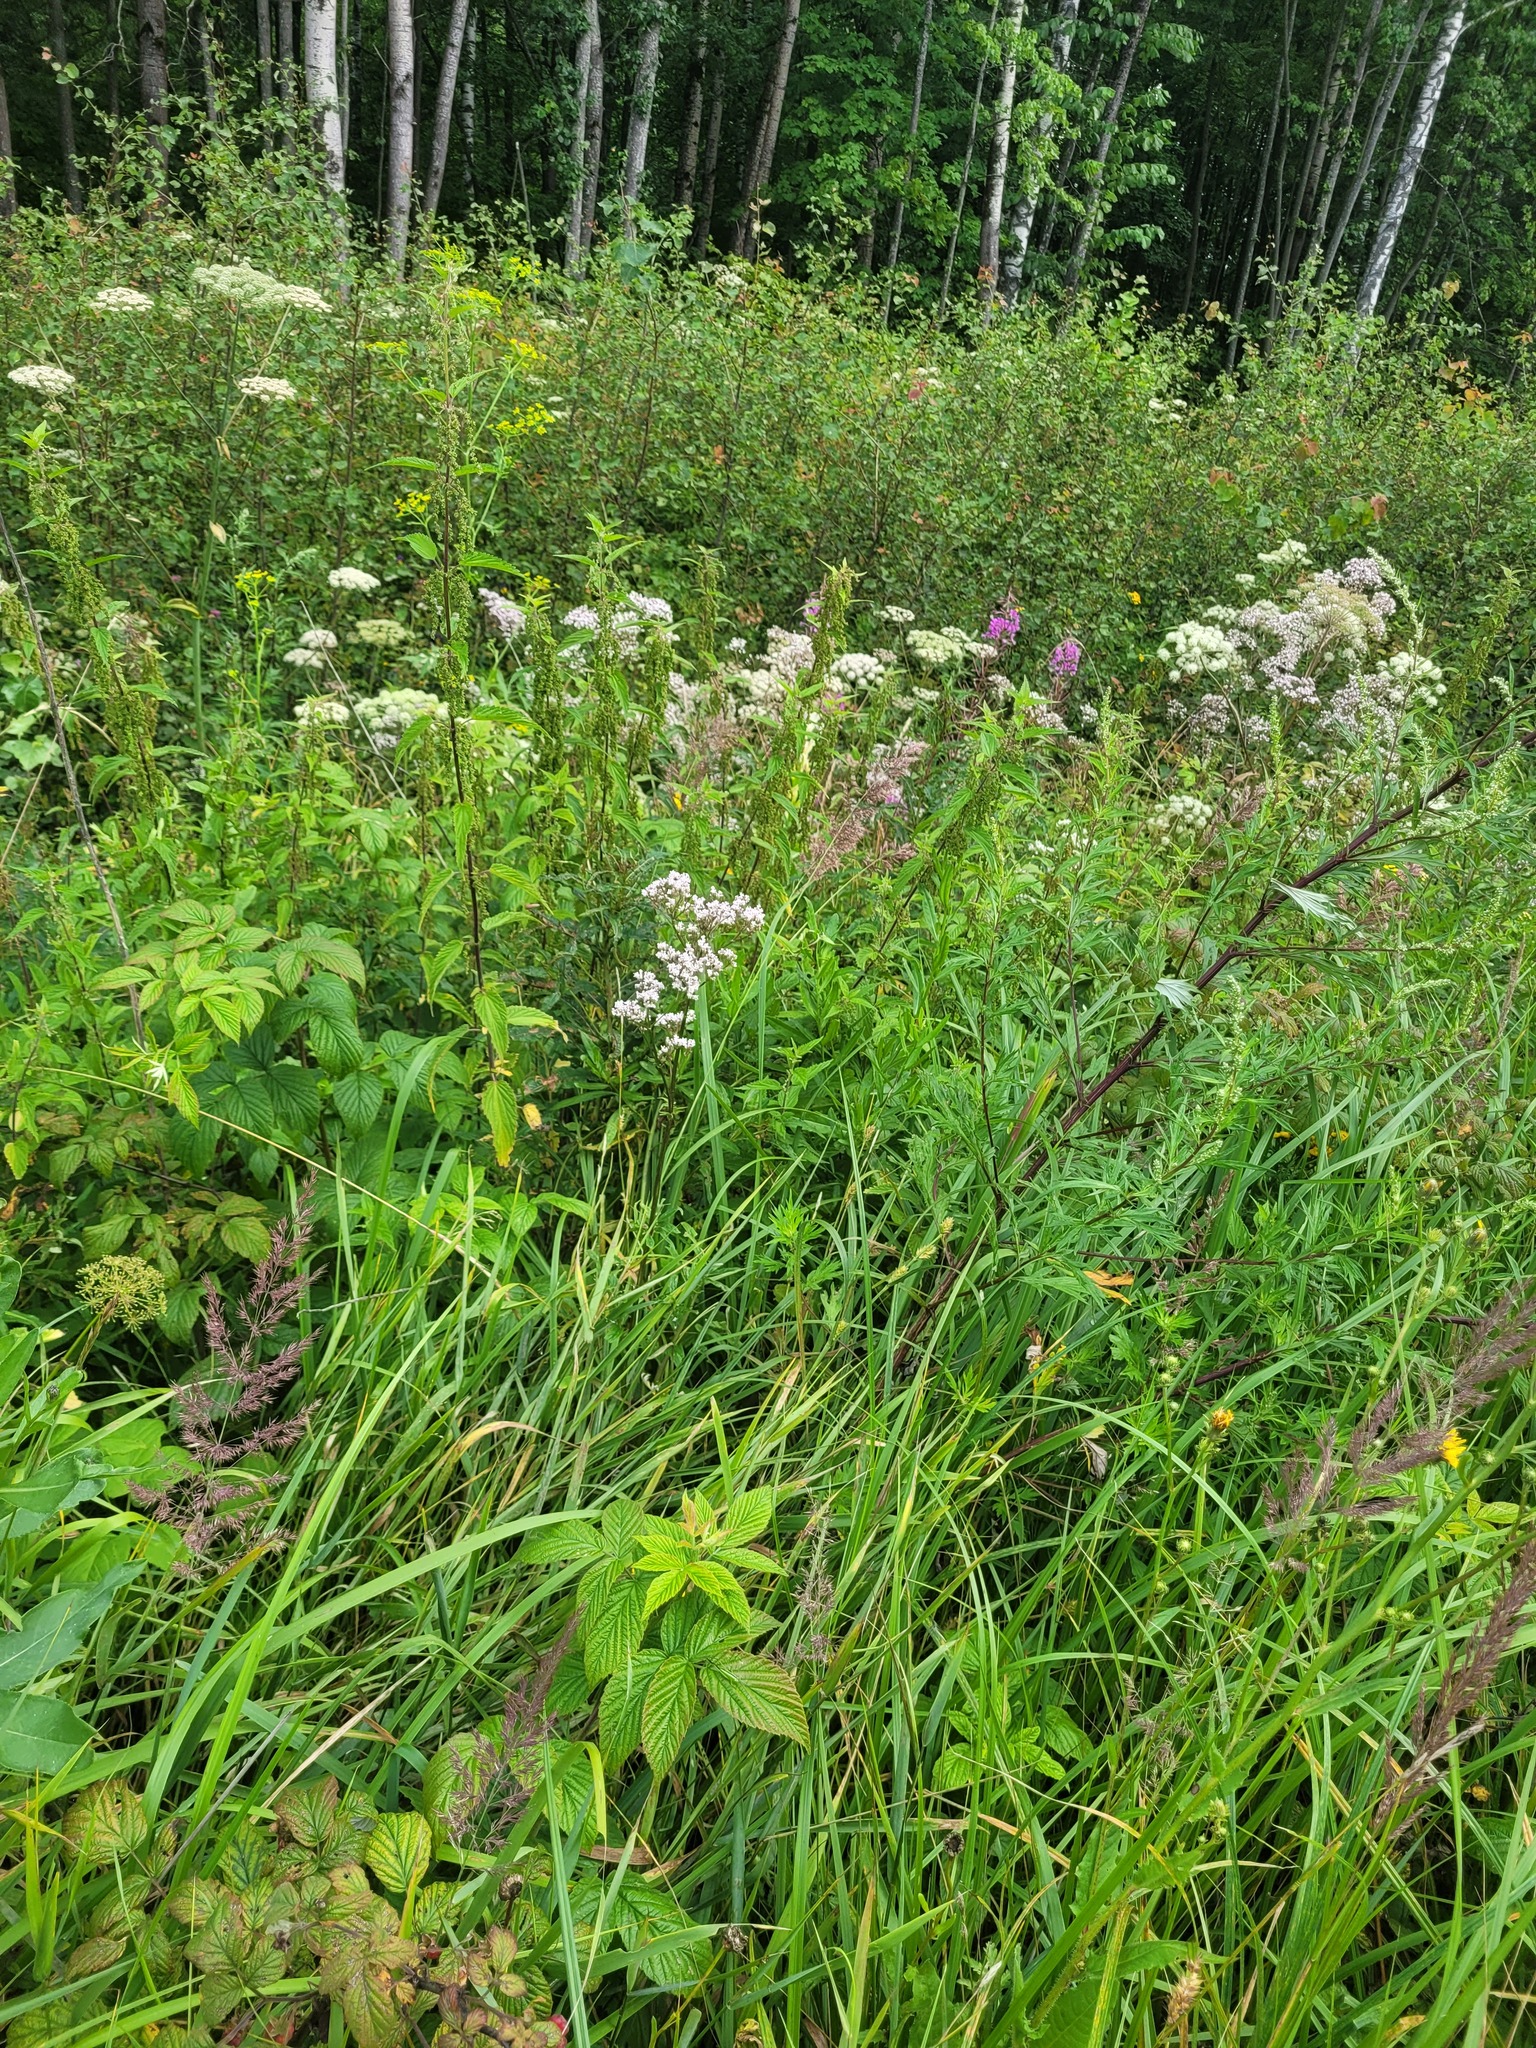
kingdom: Plantae
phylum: Tracheophyta
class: Magnoliopsida
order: Dipsacales
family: Caprifoliaceae
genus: Valeriana
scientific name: Valeriana officinalis
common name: Common valerian
